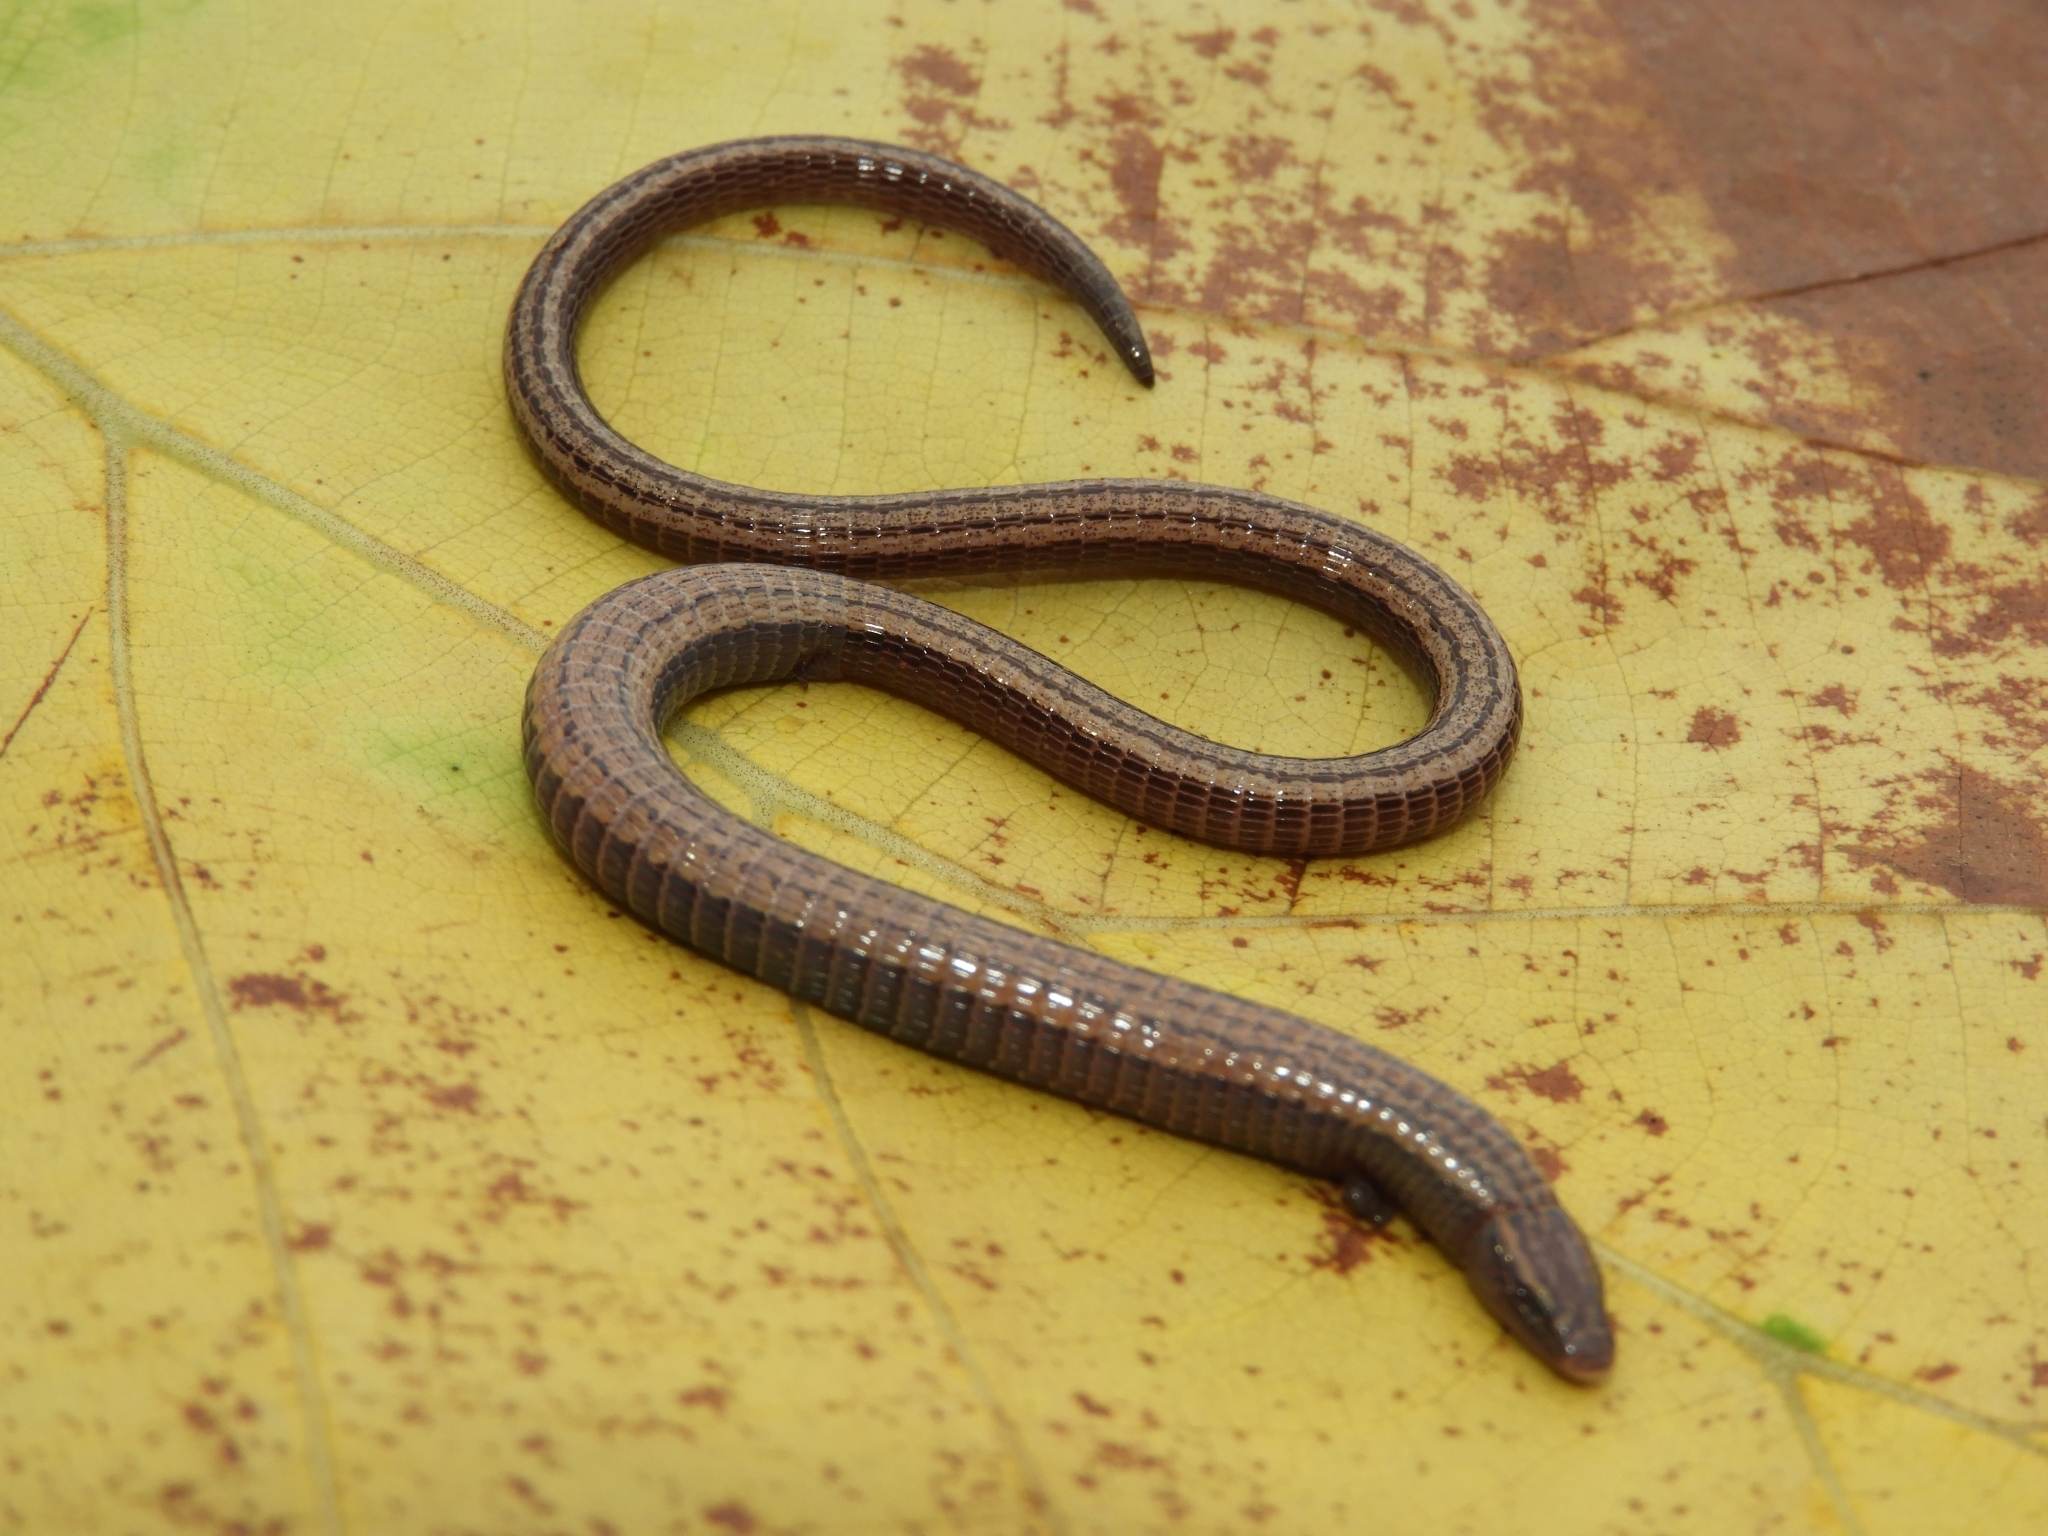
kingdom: Animalia
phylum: Chordata
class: Squamata
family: Gymnophthalmidae
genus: Bachia
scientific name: Bachia bicolor
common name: Two-colored bachia
